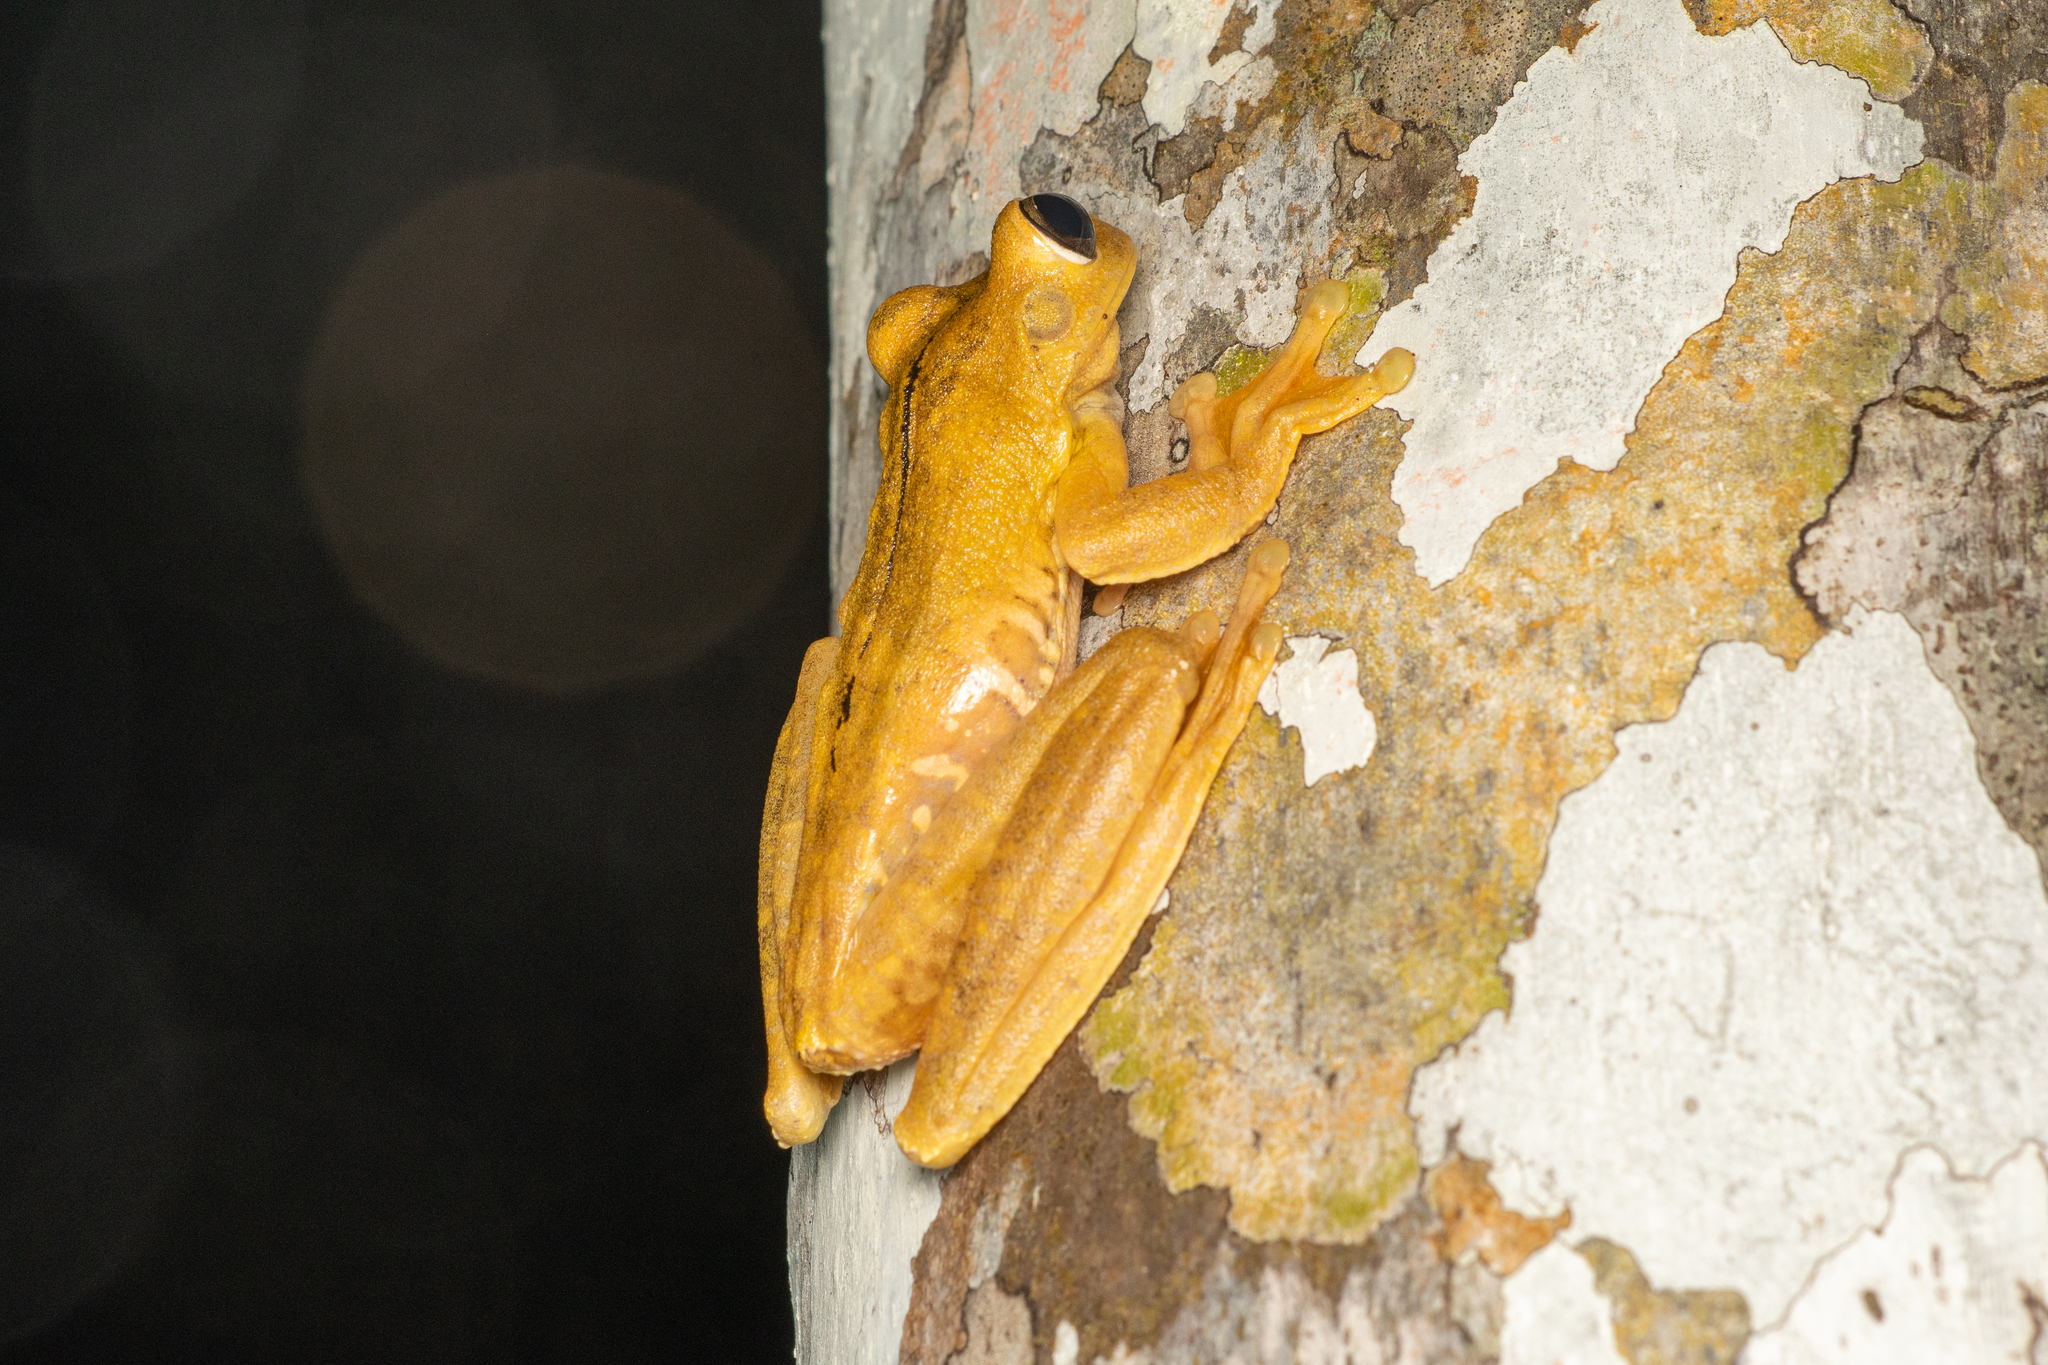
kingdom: Animalia
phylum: Chordata
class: Amphibia
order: Anura
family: Hylidae
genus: Boana
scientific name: Boana rosenbergi
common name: Rosenberg´s gladiator treefrog
